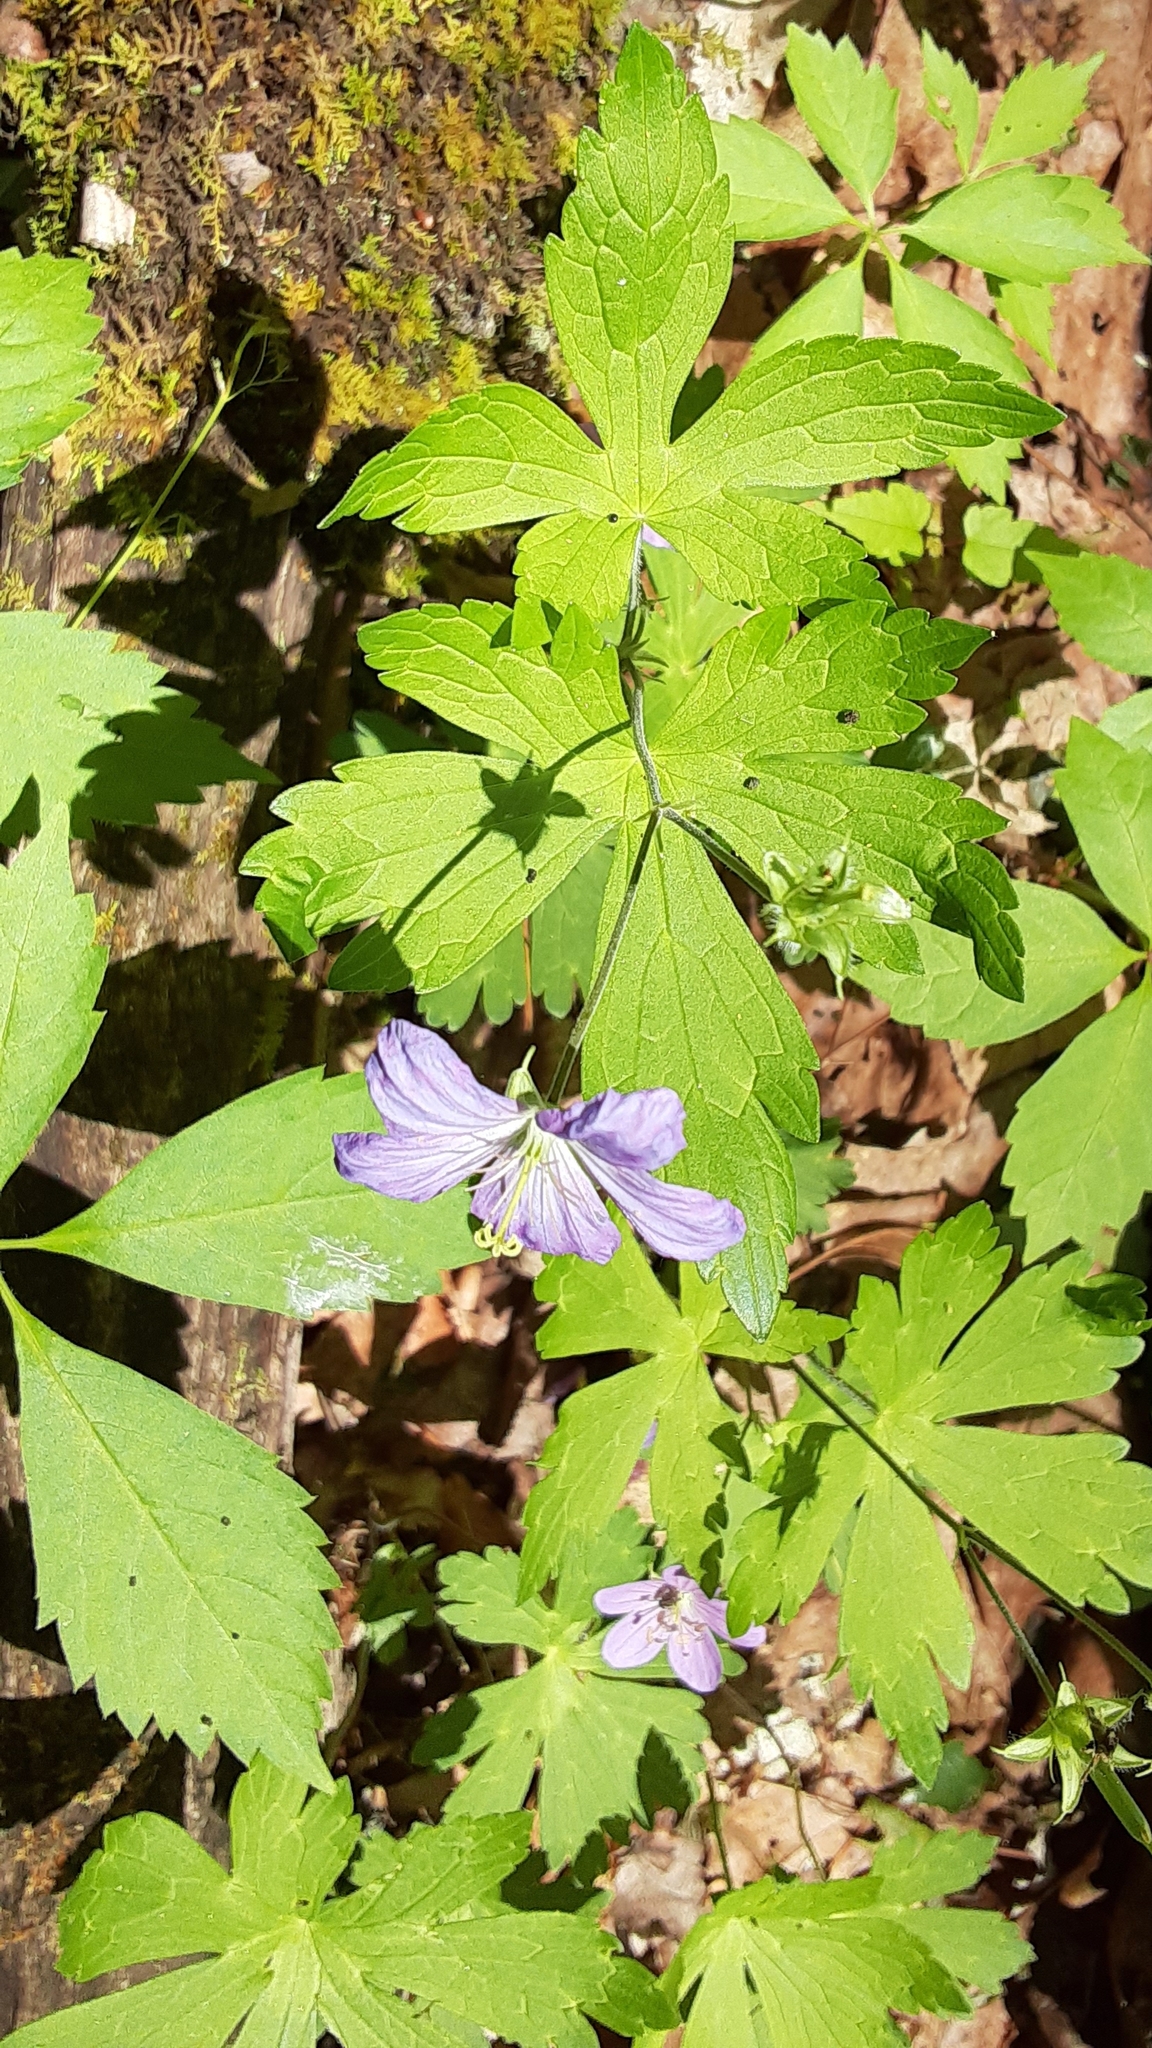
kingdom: Plantae
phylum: Tracheophyta
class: Magnoliopsida
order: Geraniales
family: Geraniaceae
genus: Geranium
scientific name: Geranium maculatum
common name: Spotted geranium
